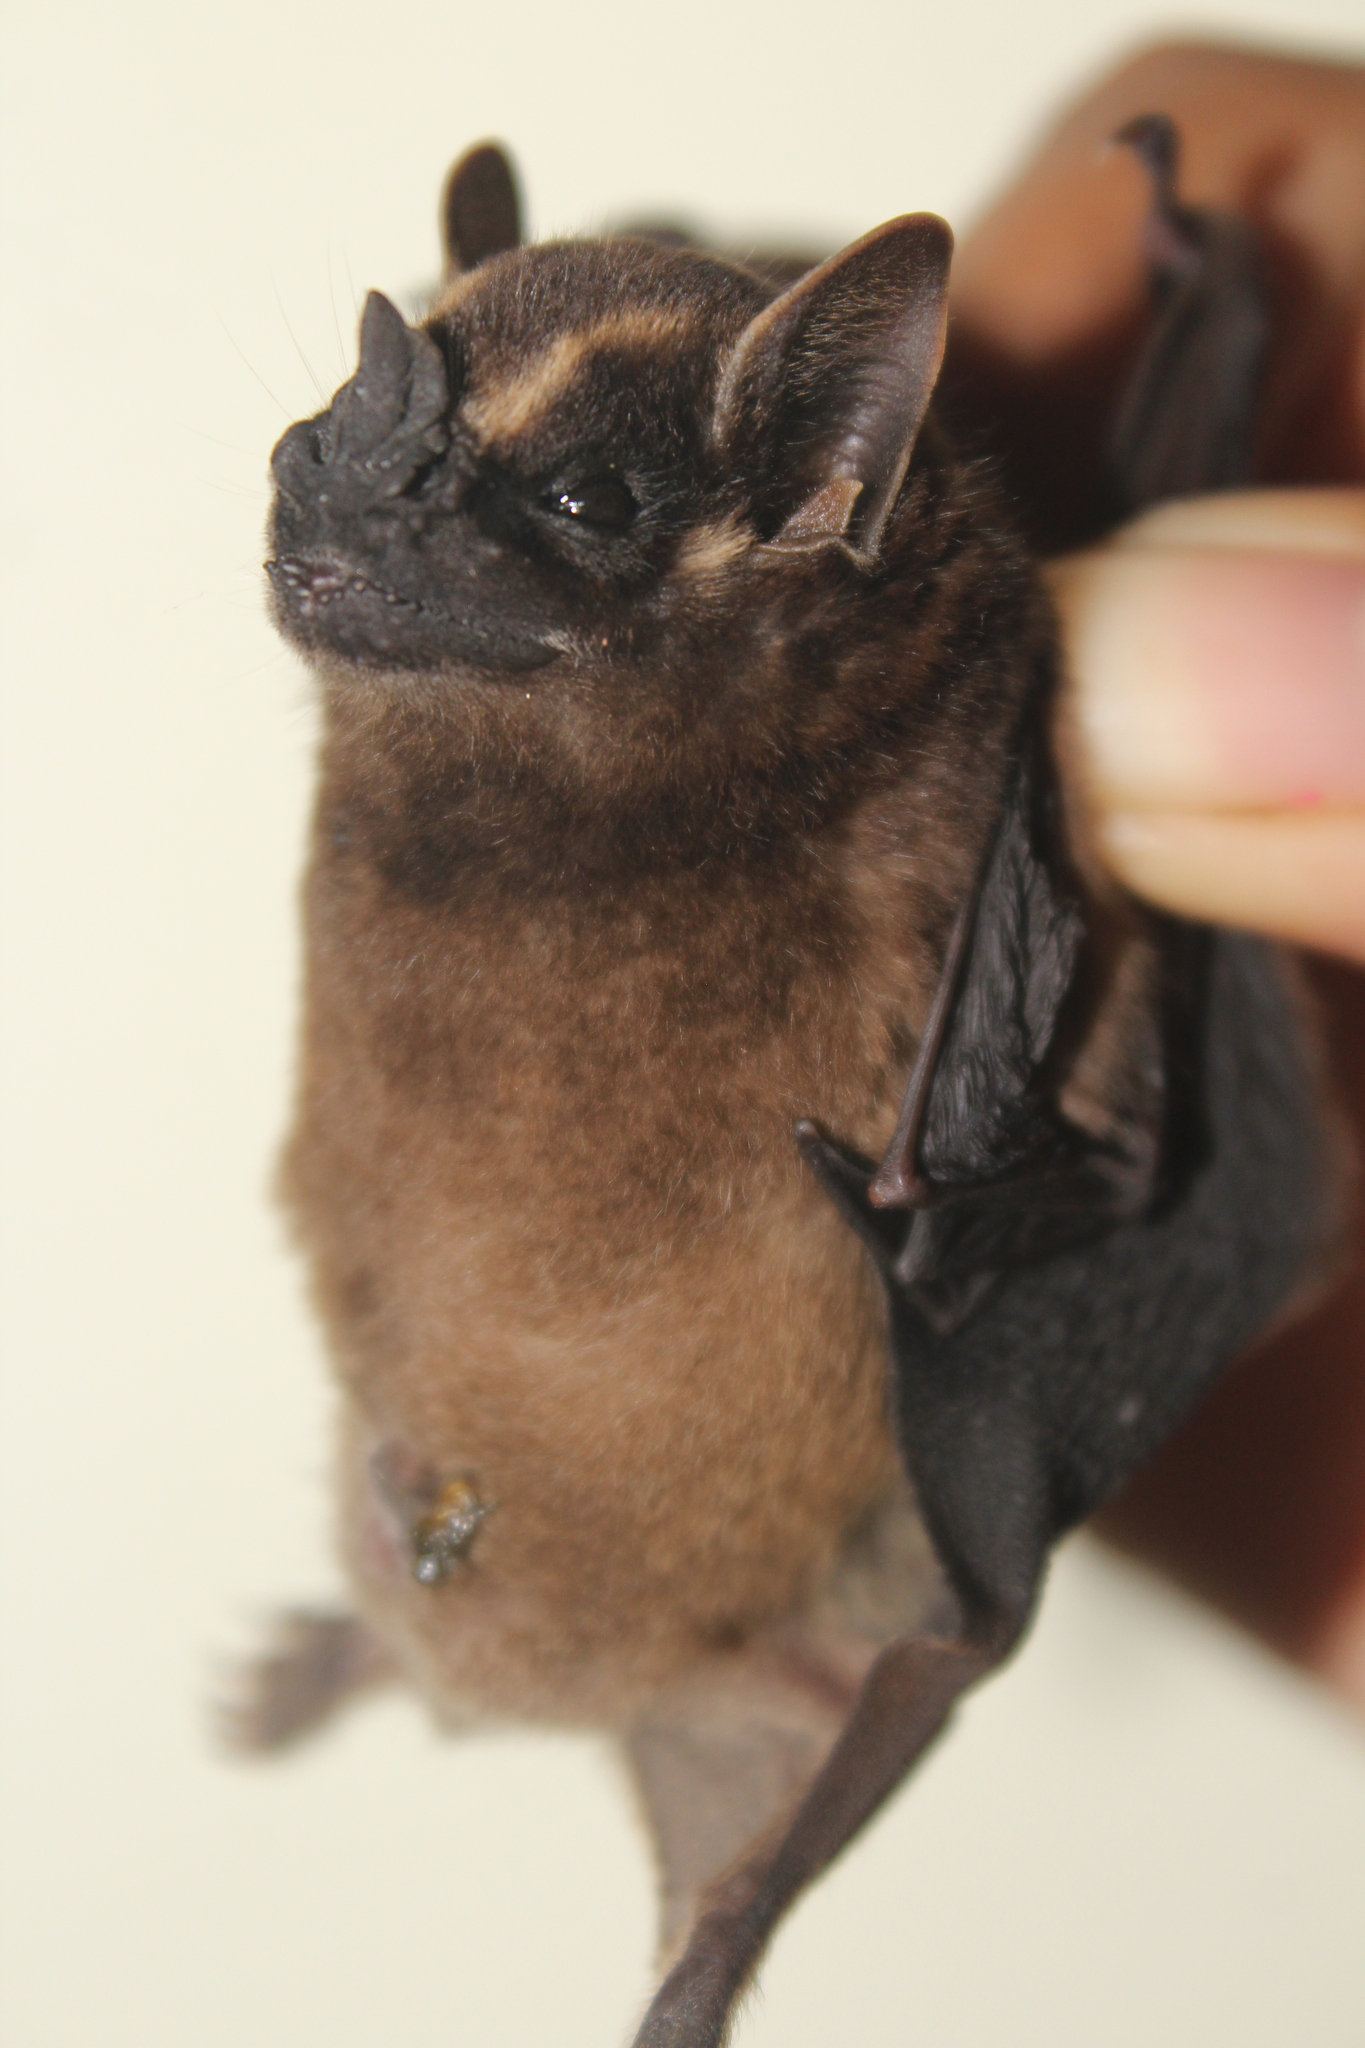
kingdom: Animalia
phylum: Chordata
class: Mammalia
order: Chiroptera
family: Phyllostomidae
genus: Enchisthenes
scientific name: Enchisthenes hartii
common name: Velvety fruit-eating bat
